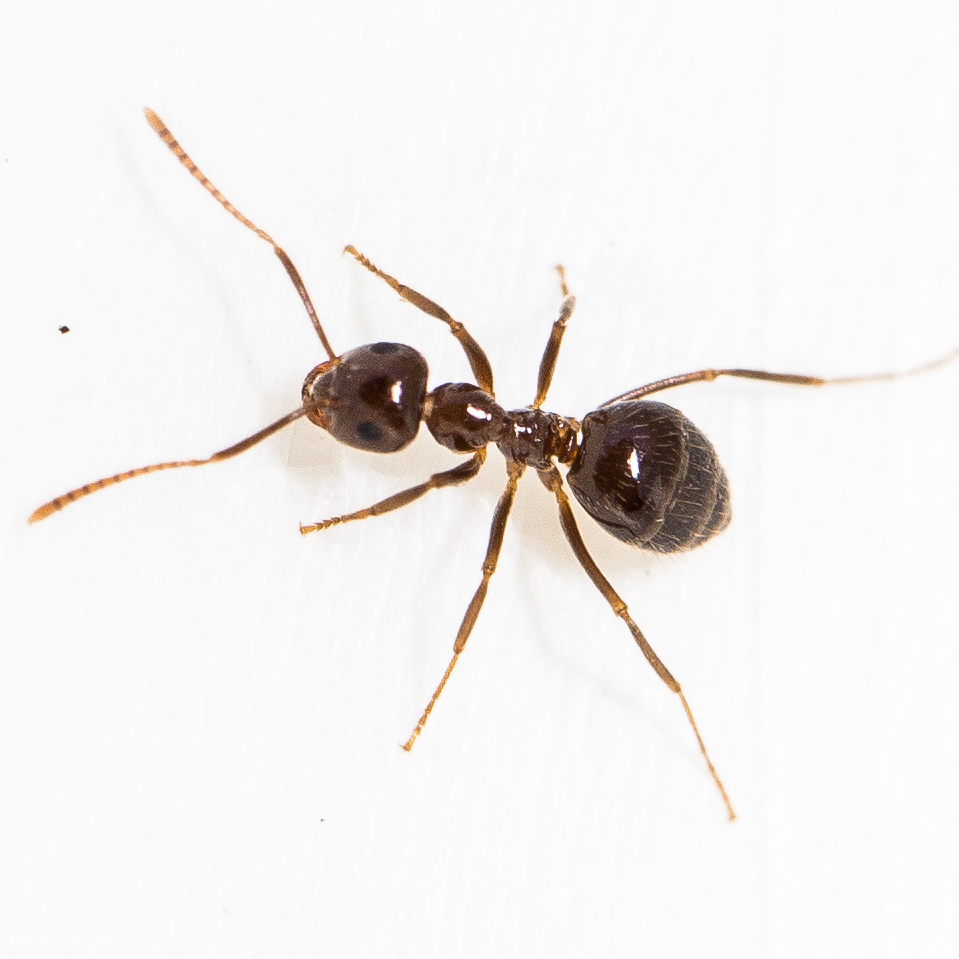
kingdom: Animalia
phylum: Arthropoda
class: Insecta
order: Hymenoptera
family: Formicidae
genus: Prenolepis
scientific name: Prenolepis imparis
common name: Small honey ant
